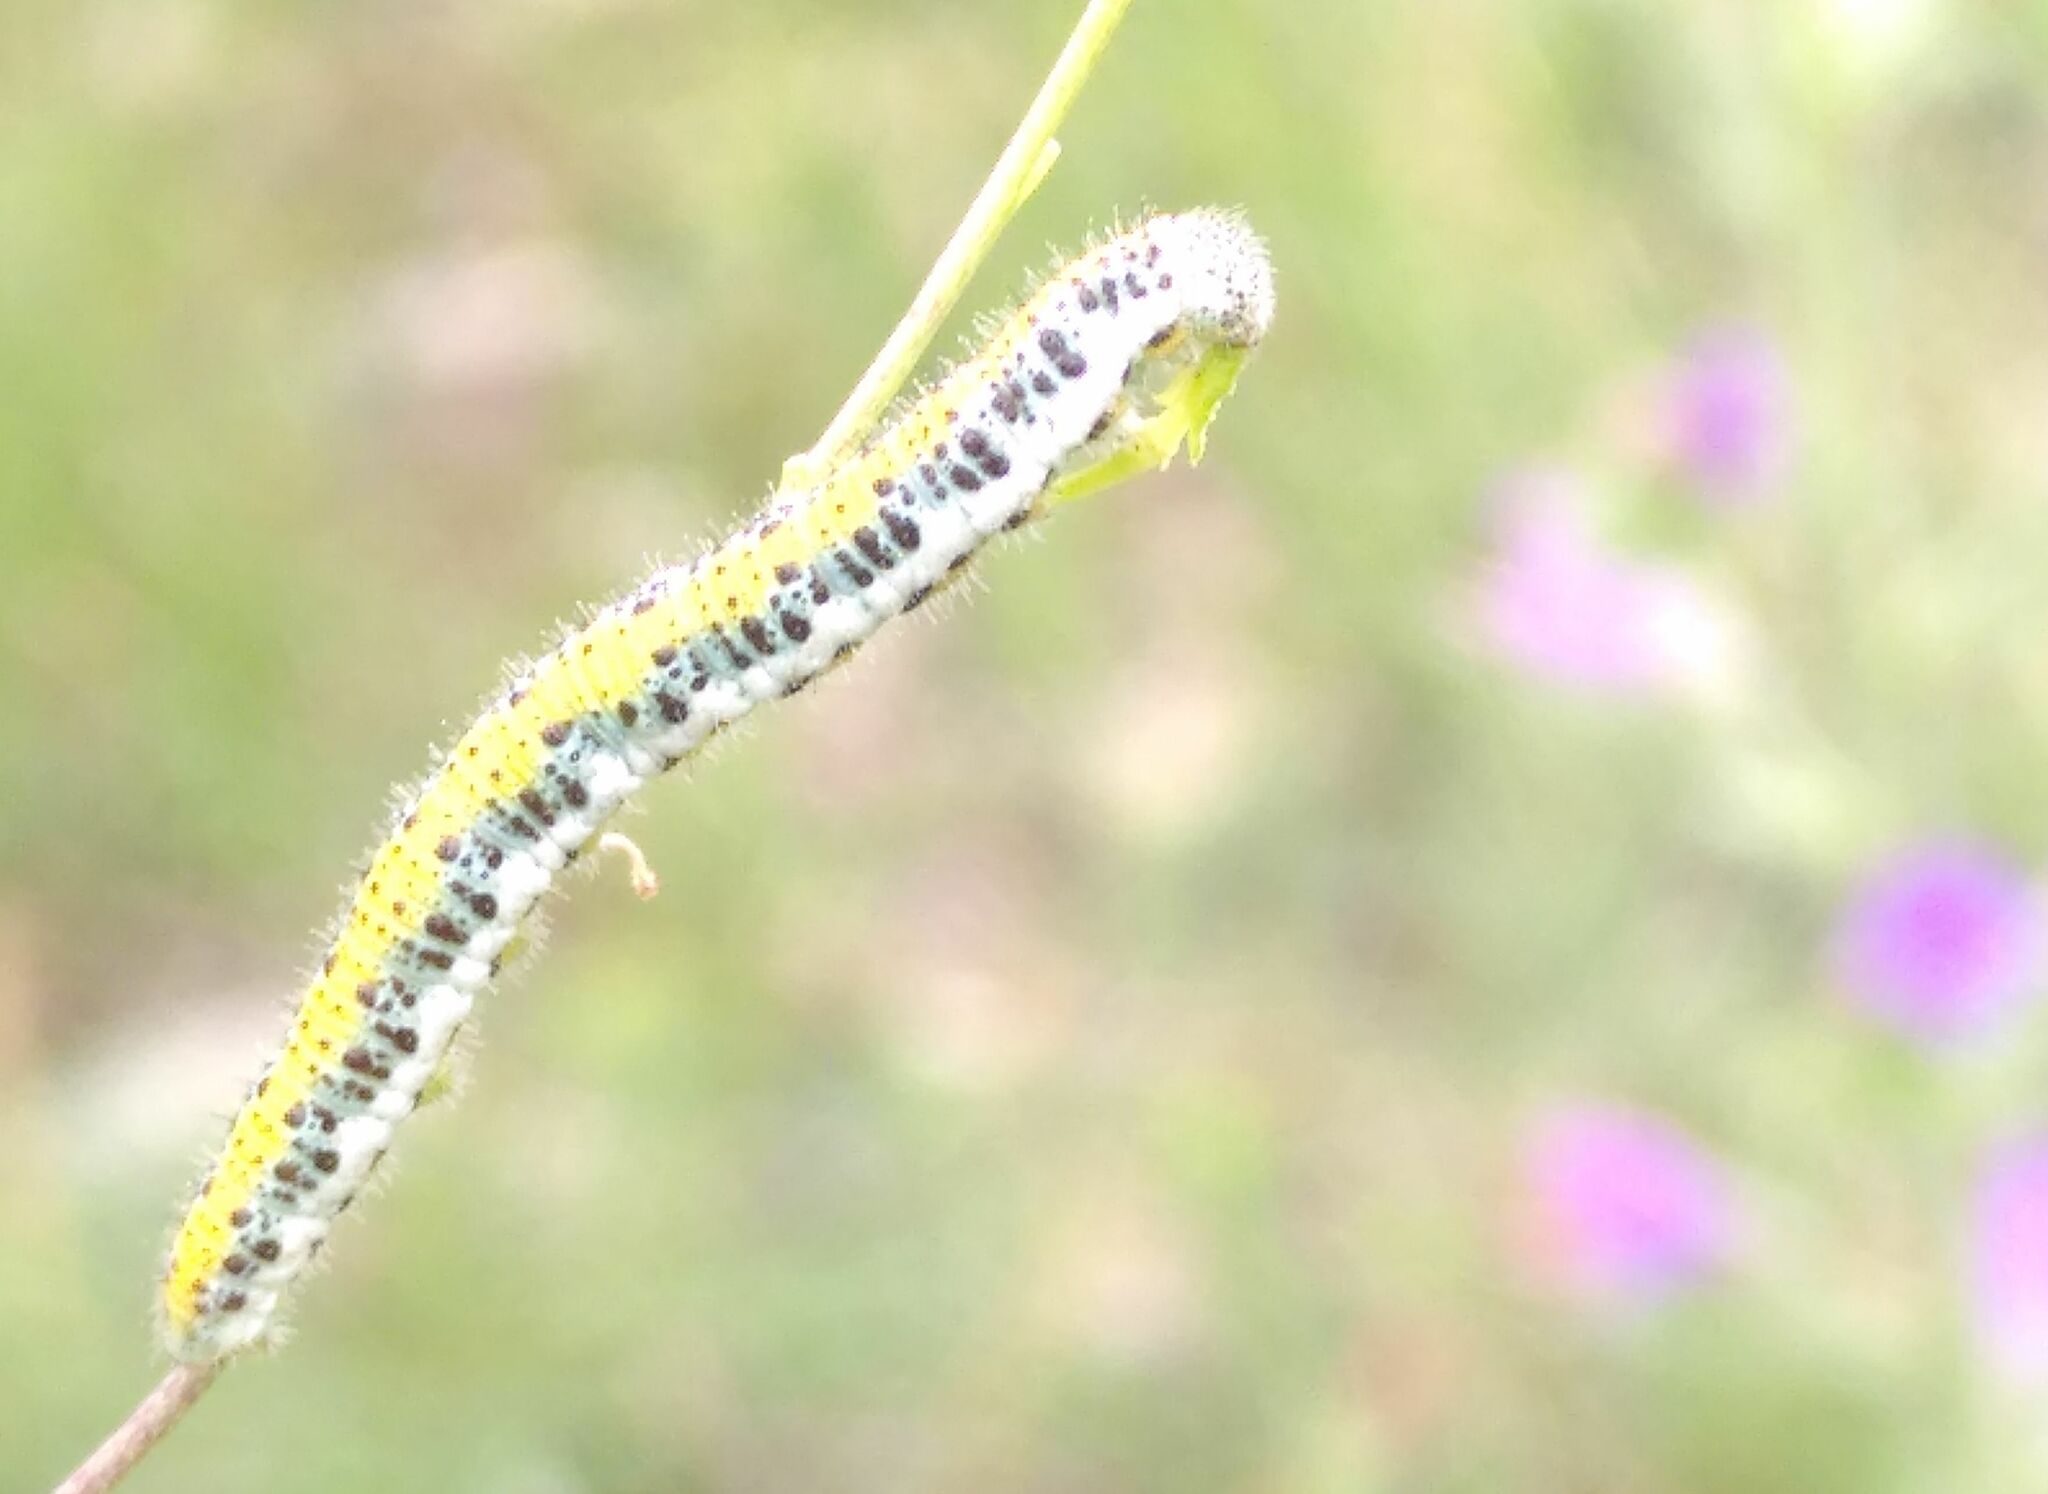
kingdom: Animalia
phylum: Arthropoda
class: Insecta
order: Lepidoptera
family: Pieridae
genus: Anthocharis
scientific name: Anthocharis euphenoides
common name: Provence orange-tip
